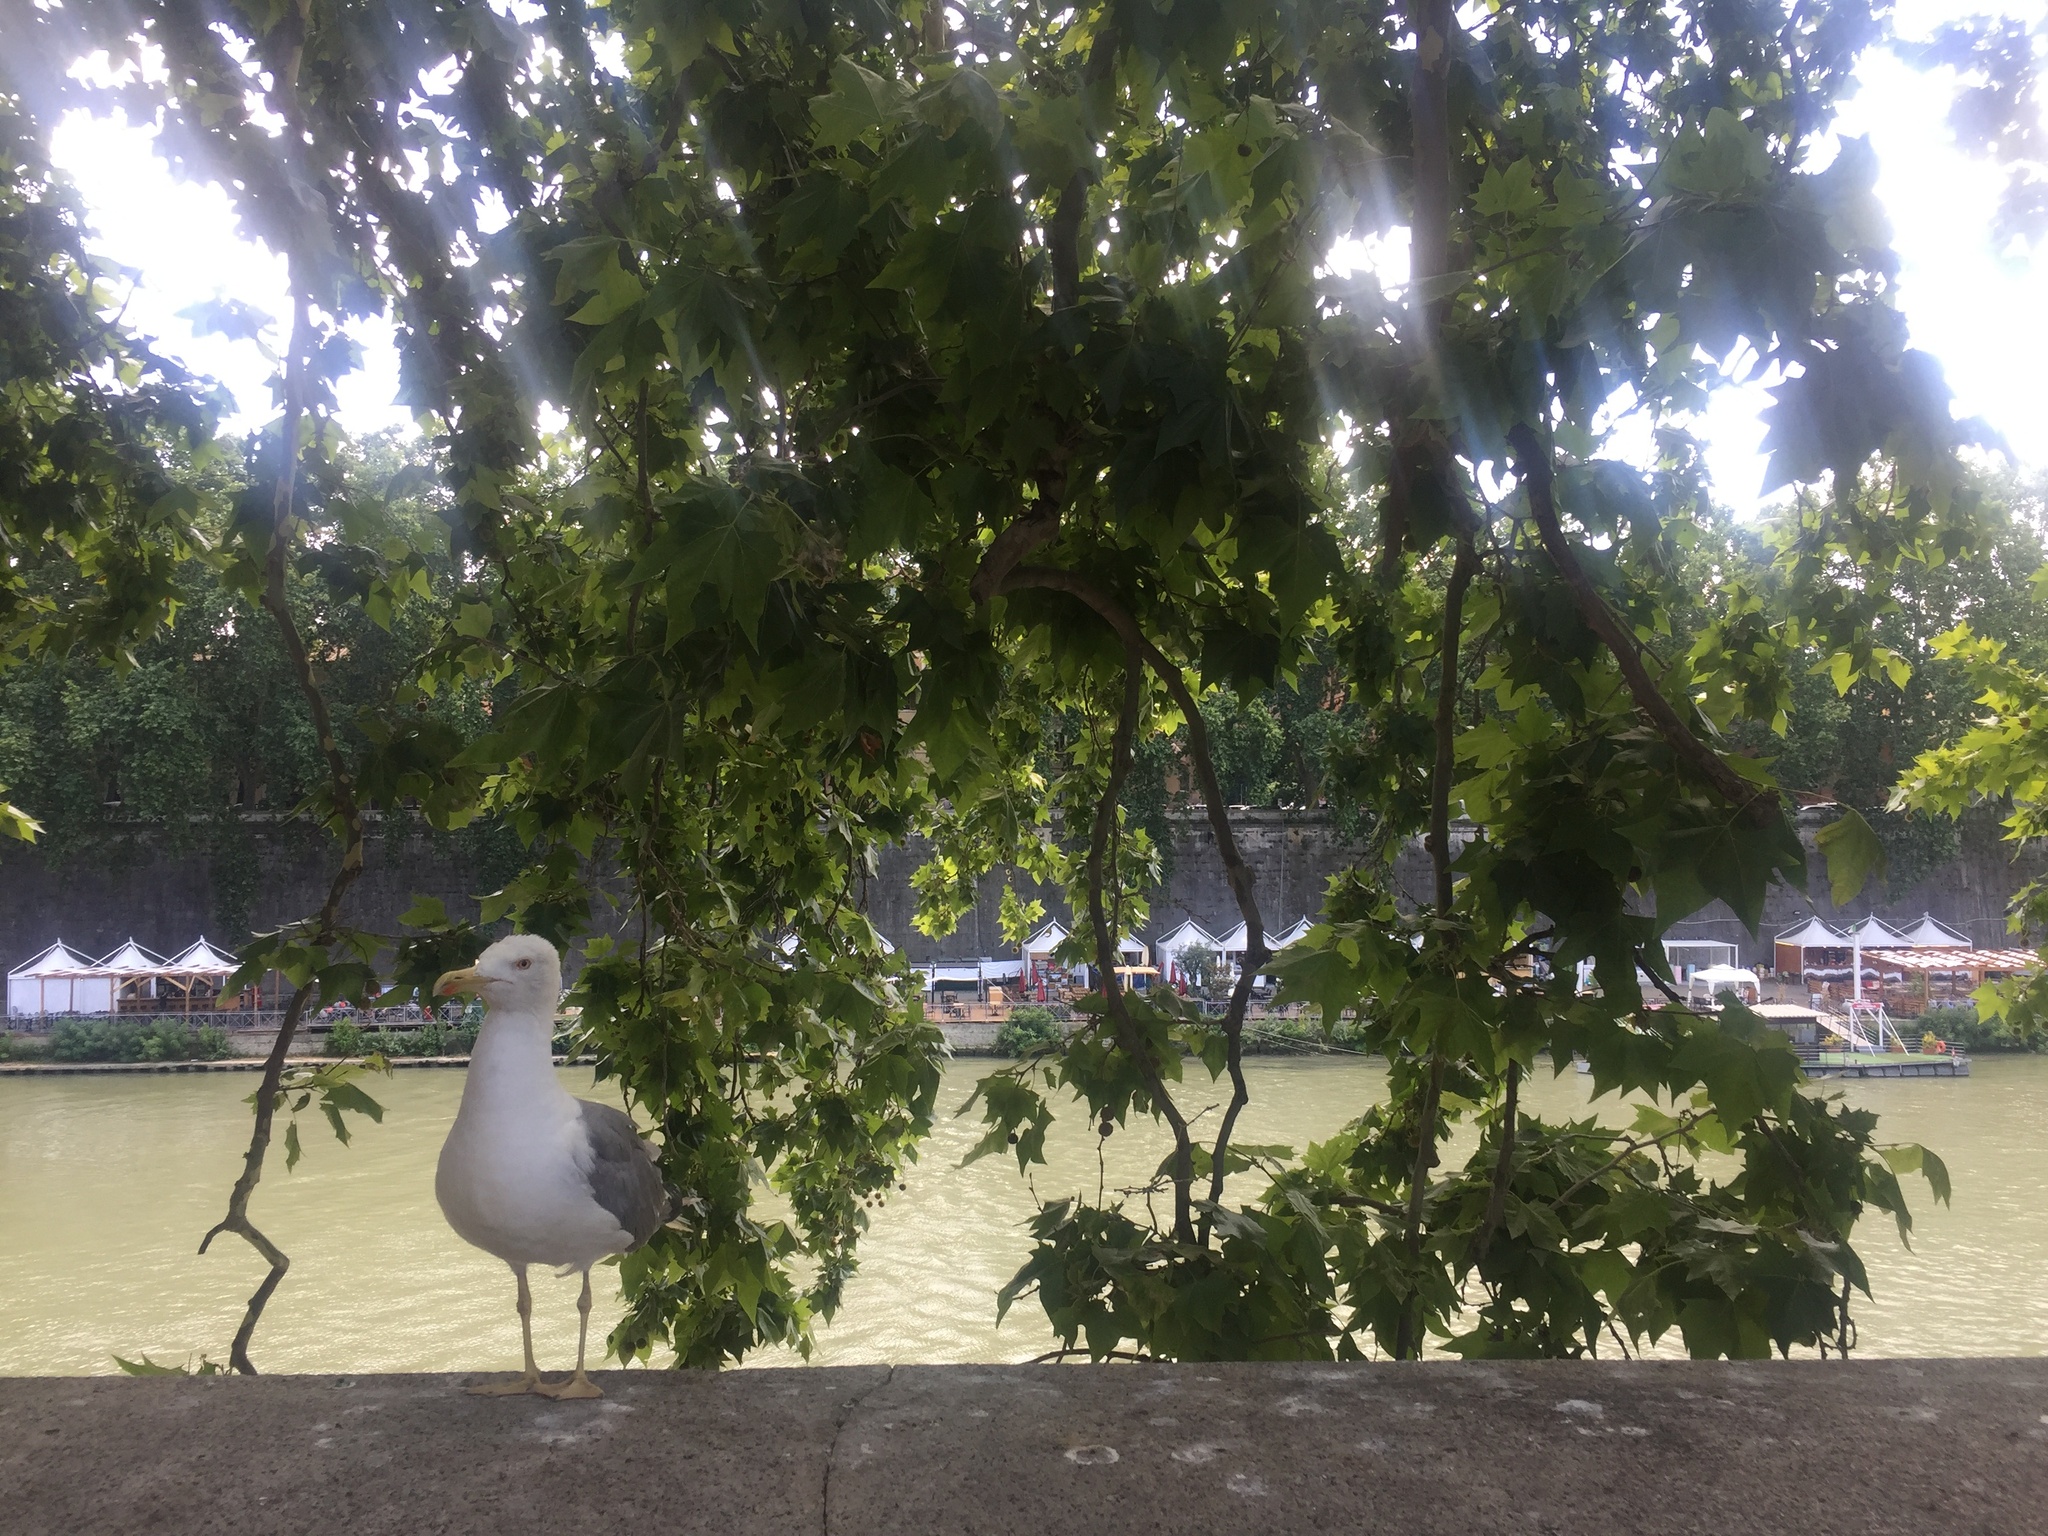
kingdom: Animalia
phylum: Chordata
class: Aves
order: Charadriiformes
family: Laridae
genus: Larus
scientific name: Larus michahellis
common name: Yellow-legged gull
